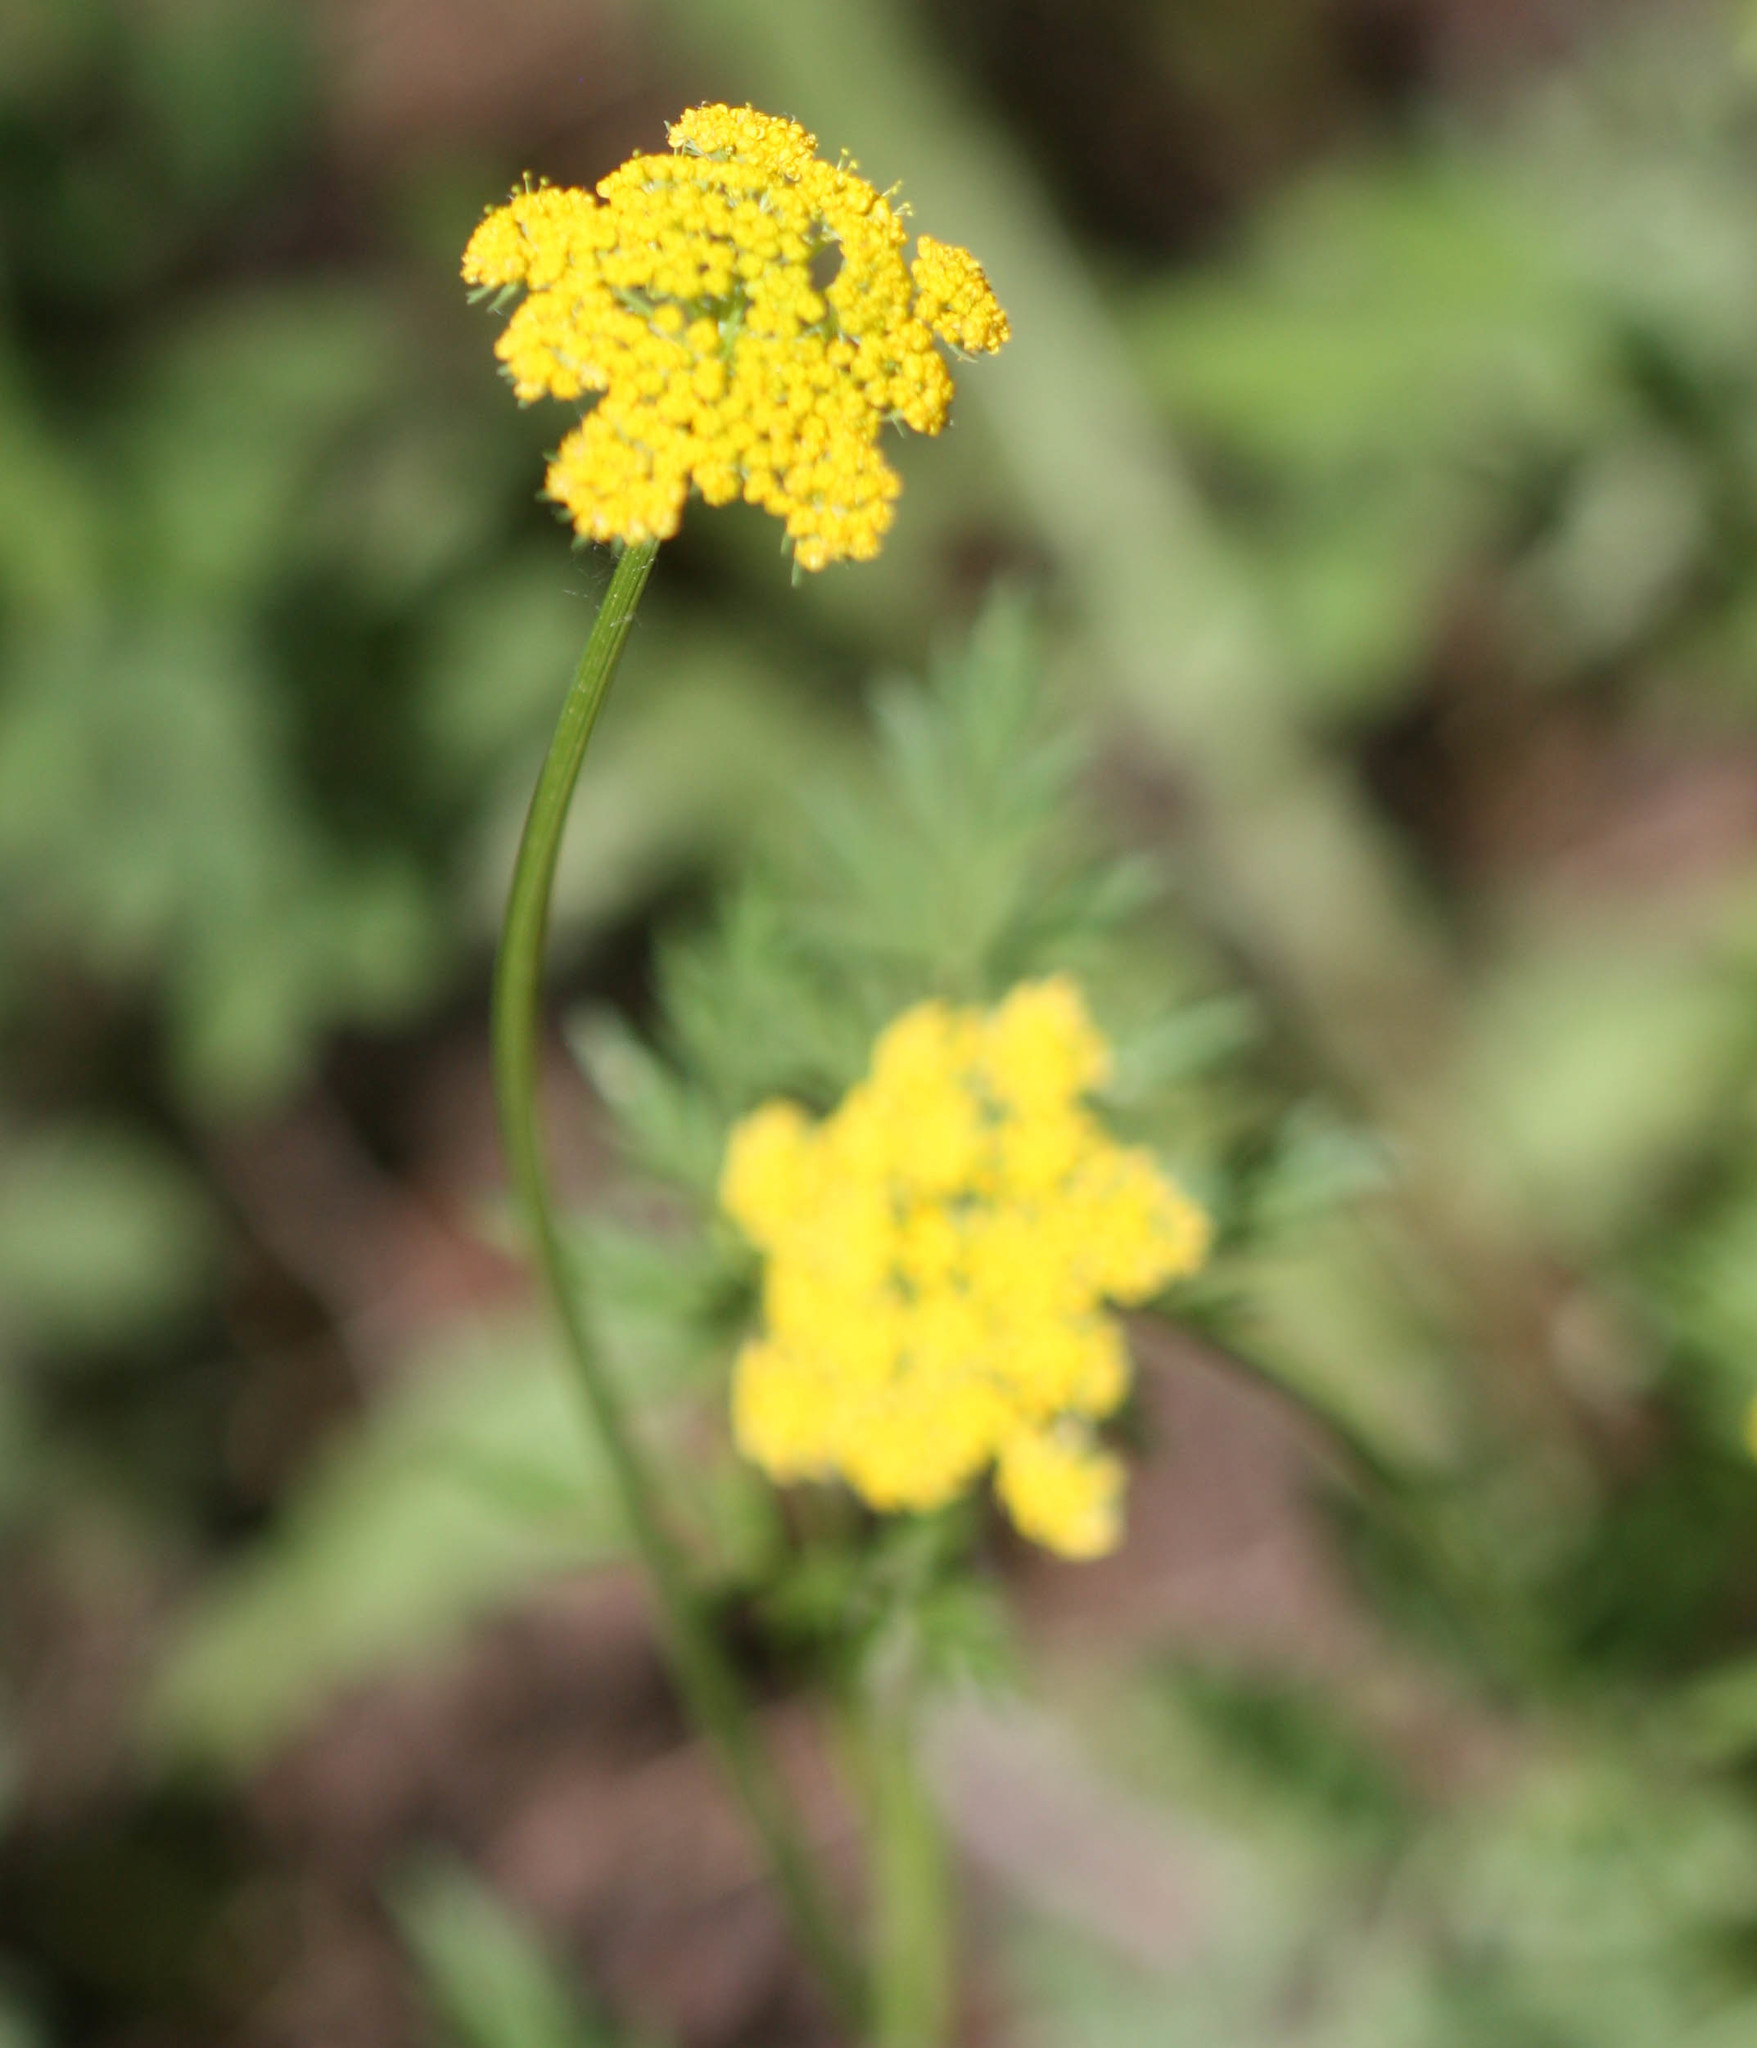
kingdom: Plantae
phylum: Tracheophyta
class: Magnoliopsida
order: Apiales
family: Apiaceae
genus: Cymopterus
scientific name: Cymopterus lemmonii
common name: Lemmon's spring-parsley
